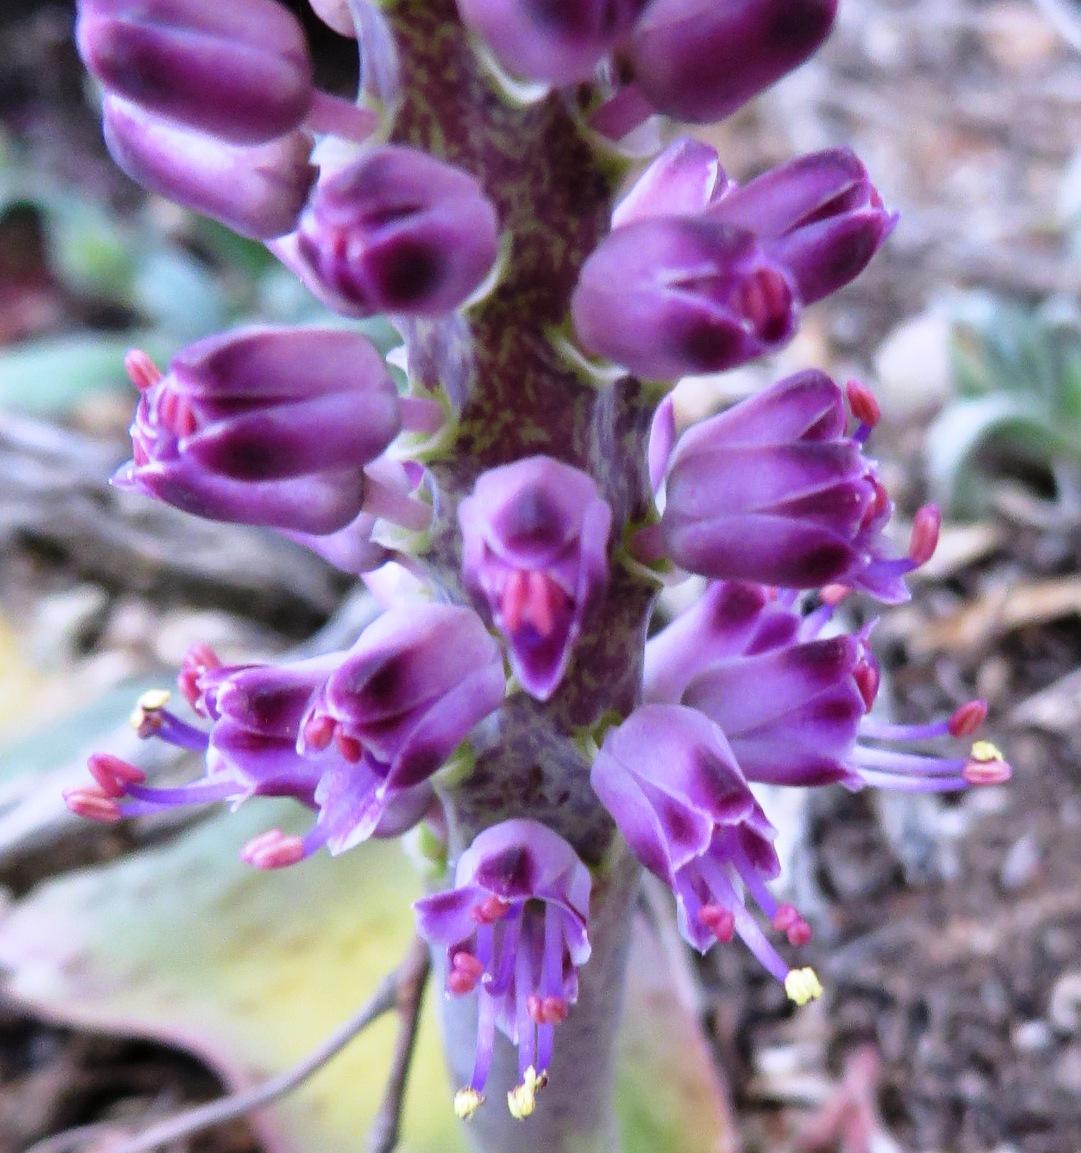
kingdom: Plantae
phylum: Tracheophyta
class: Liliopsida
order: Asparagales
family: Asparagaceae
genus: Lachenalia
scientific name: Lachenalia nardousbergensis
